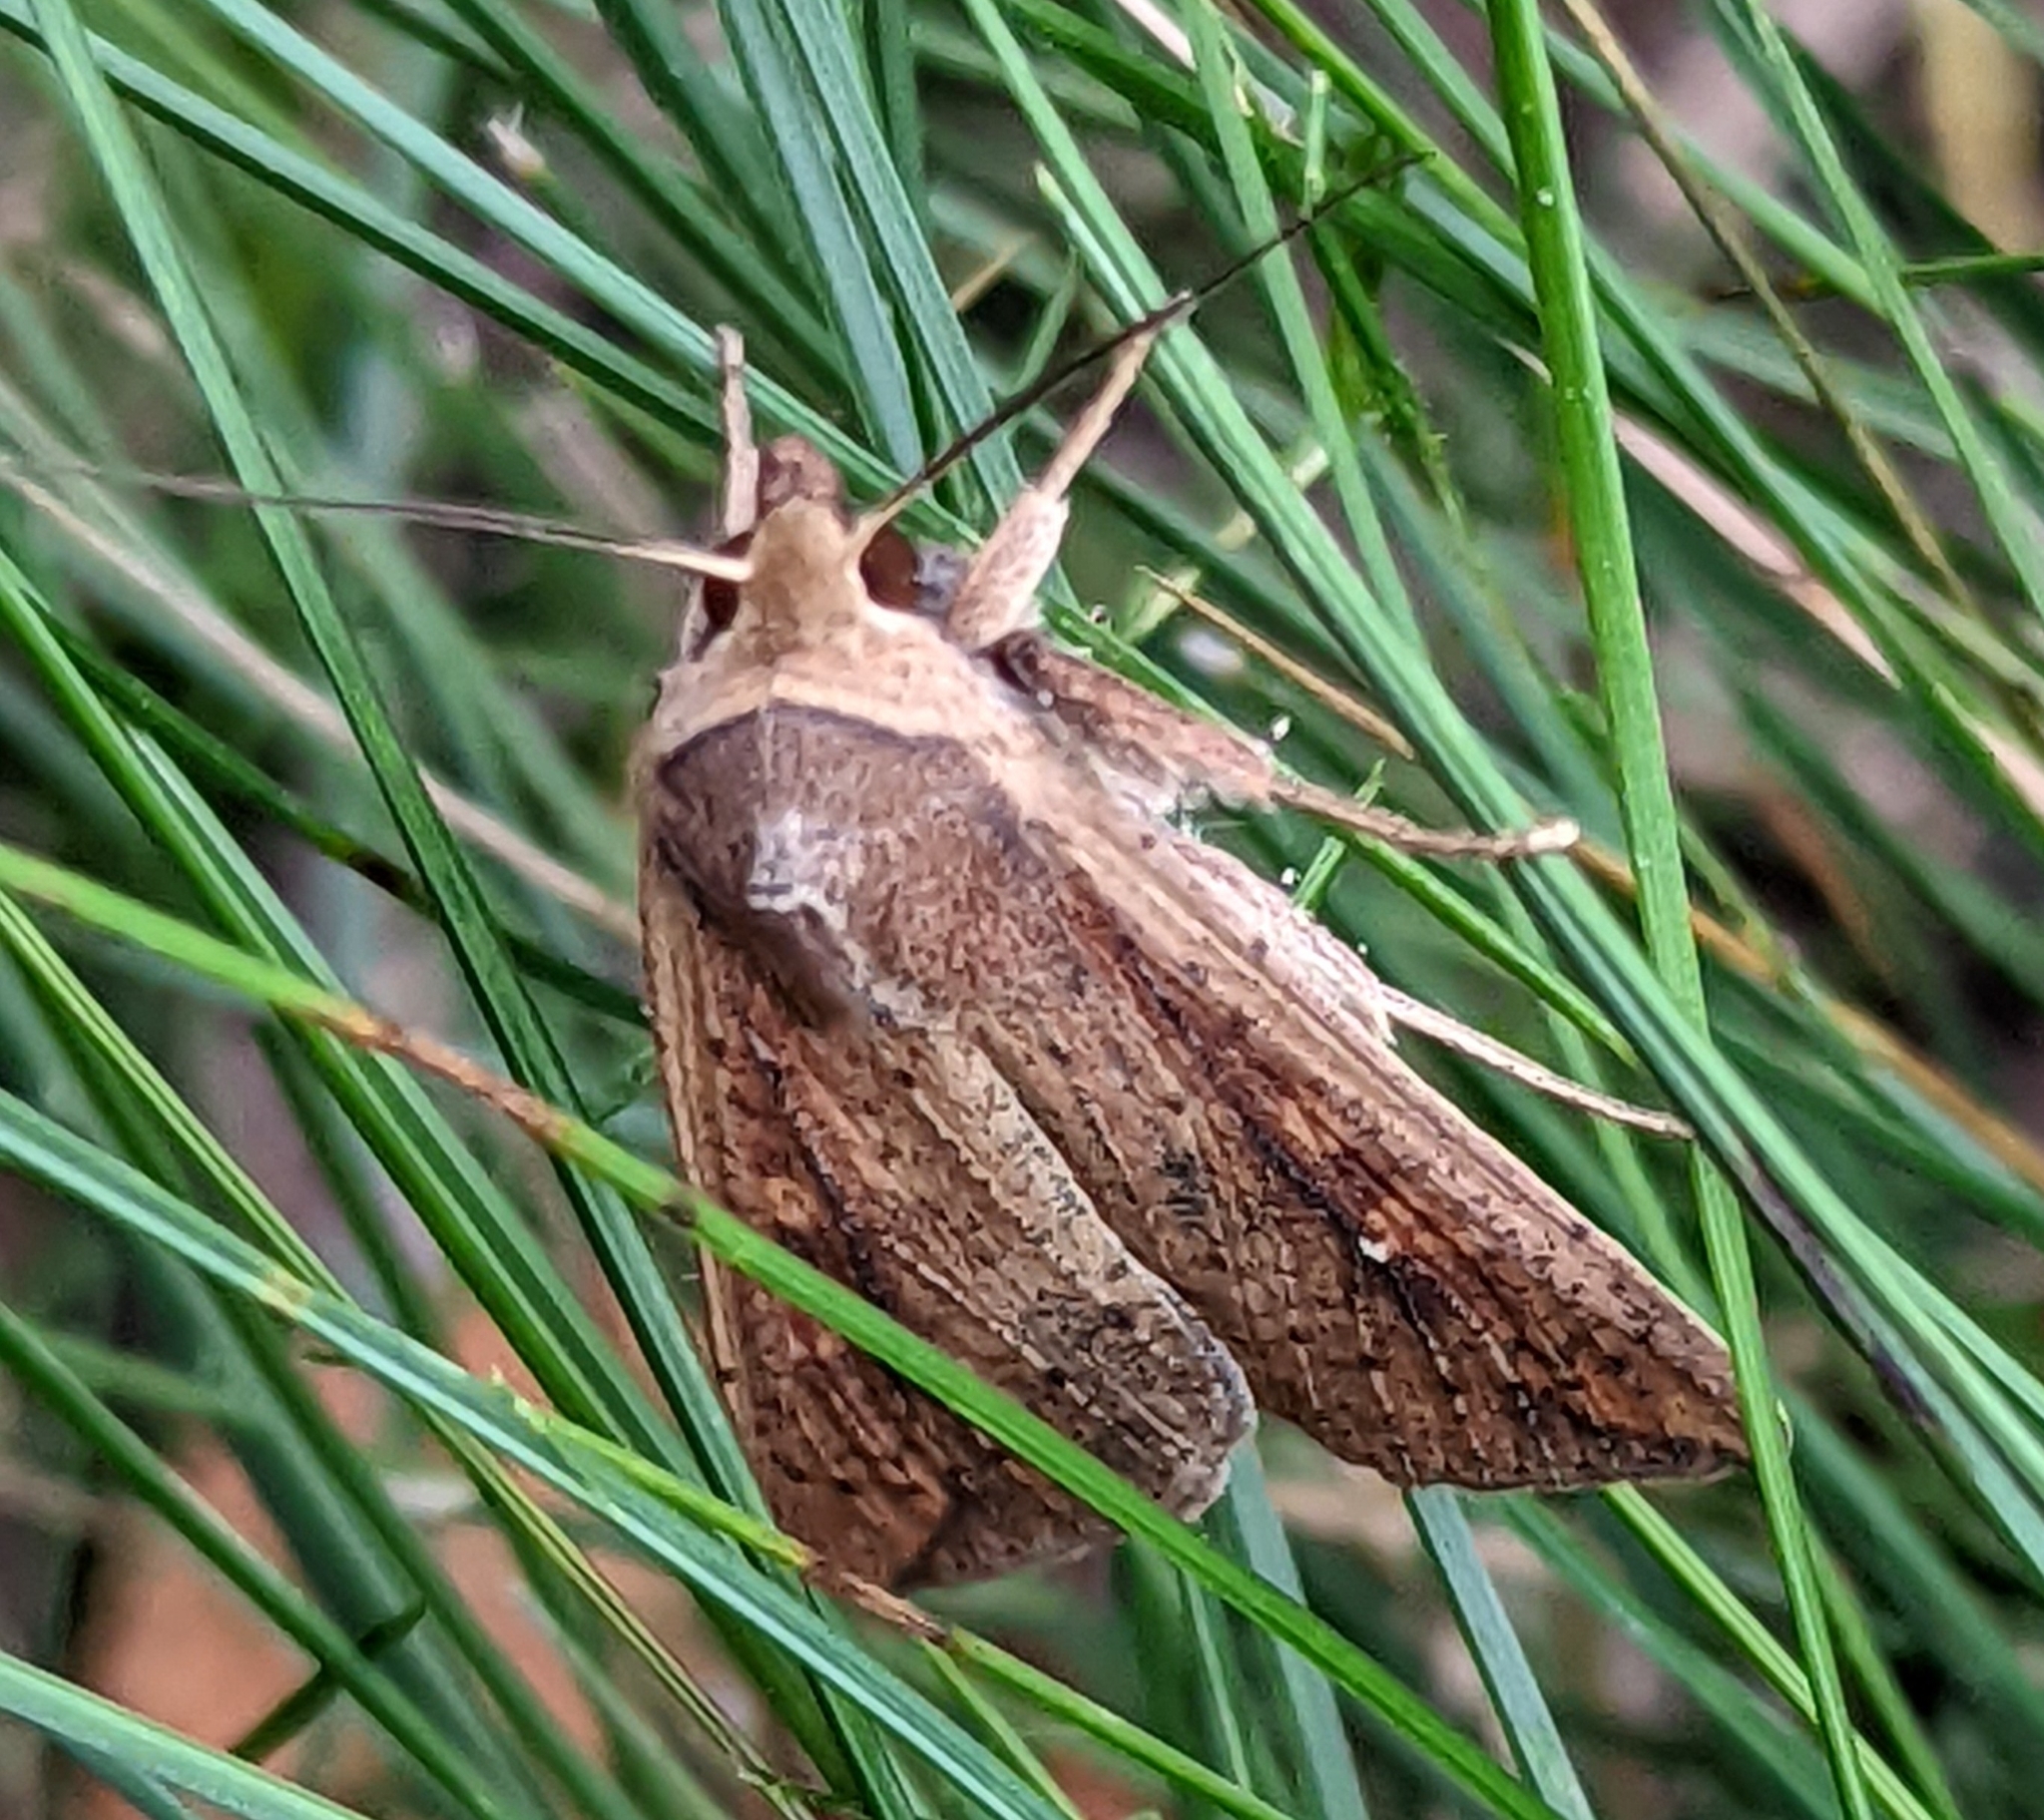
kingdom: Animalia
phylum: Arthropoda
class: Insecta
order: Lepidoptera
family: Noctuidae
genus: Mythimna
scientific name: Mythimna unipuncta
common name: White-speck
